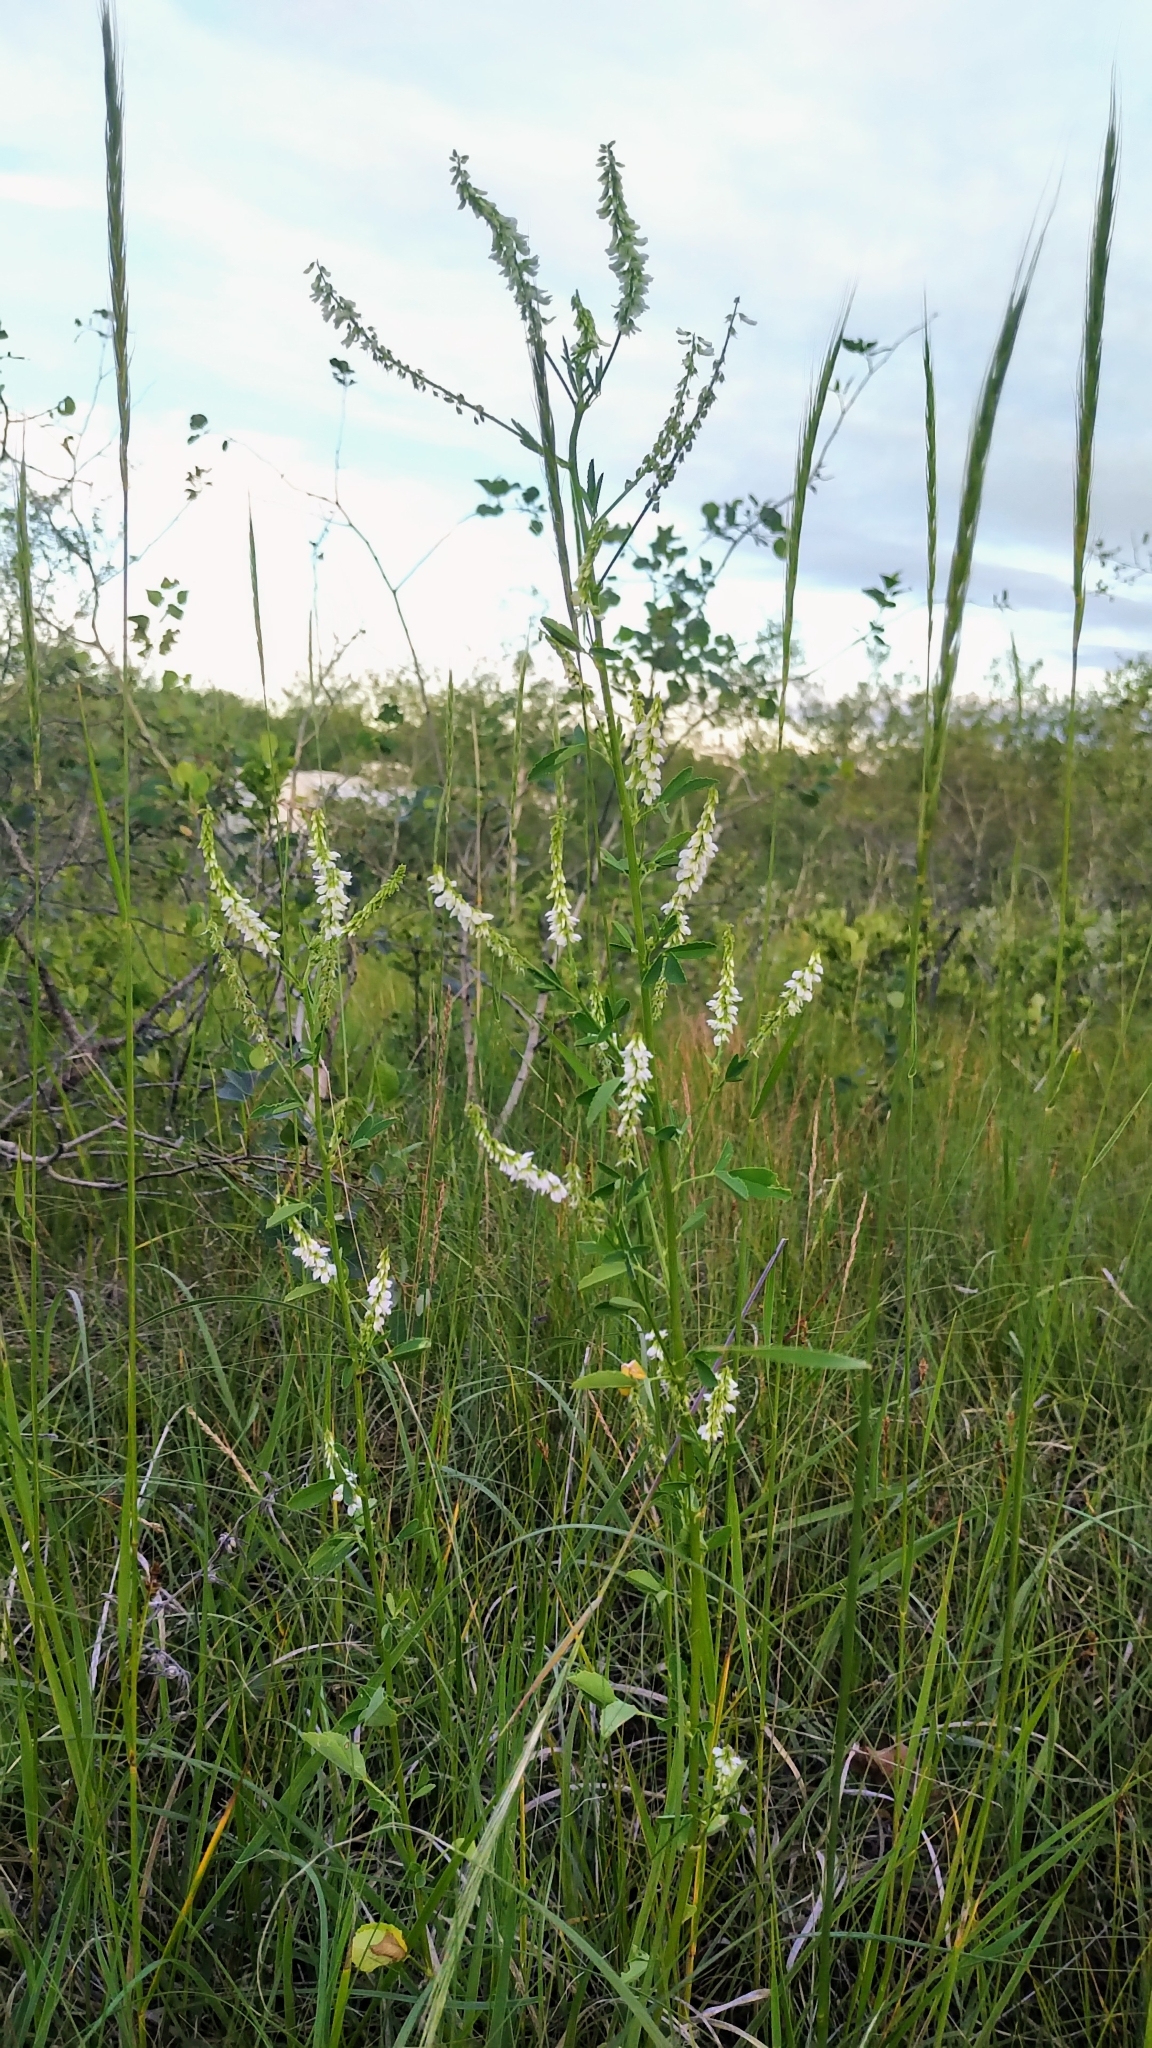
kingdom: Plantae
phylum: Tracheophyta
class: Magnoliopsida
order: Fabales
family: Fabaceae
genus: Melilotus
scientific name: Melilotus albus
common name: White melilot
